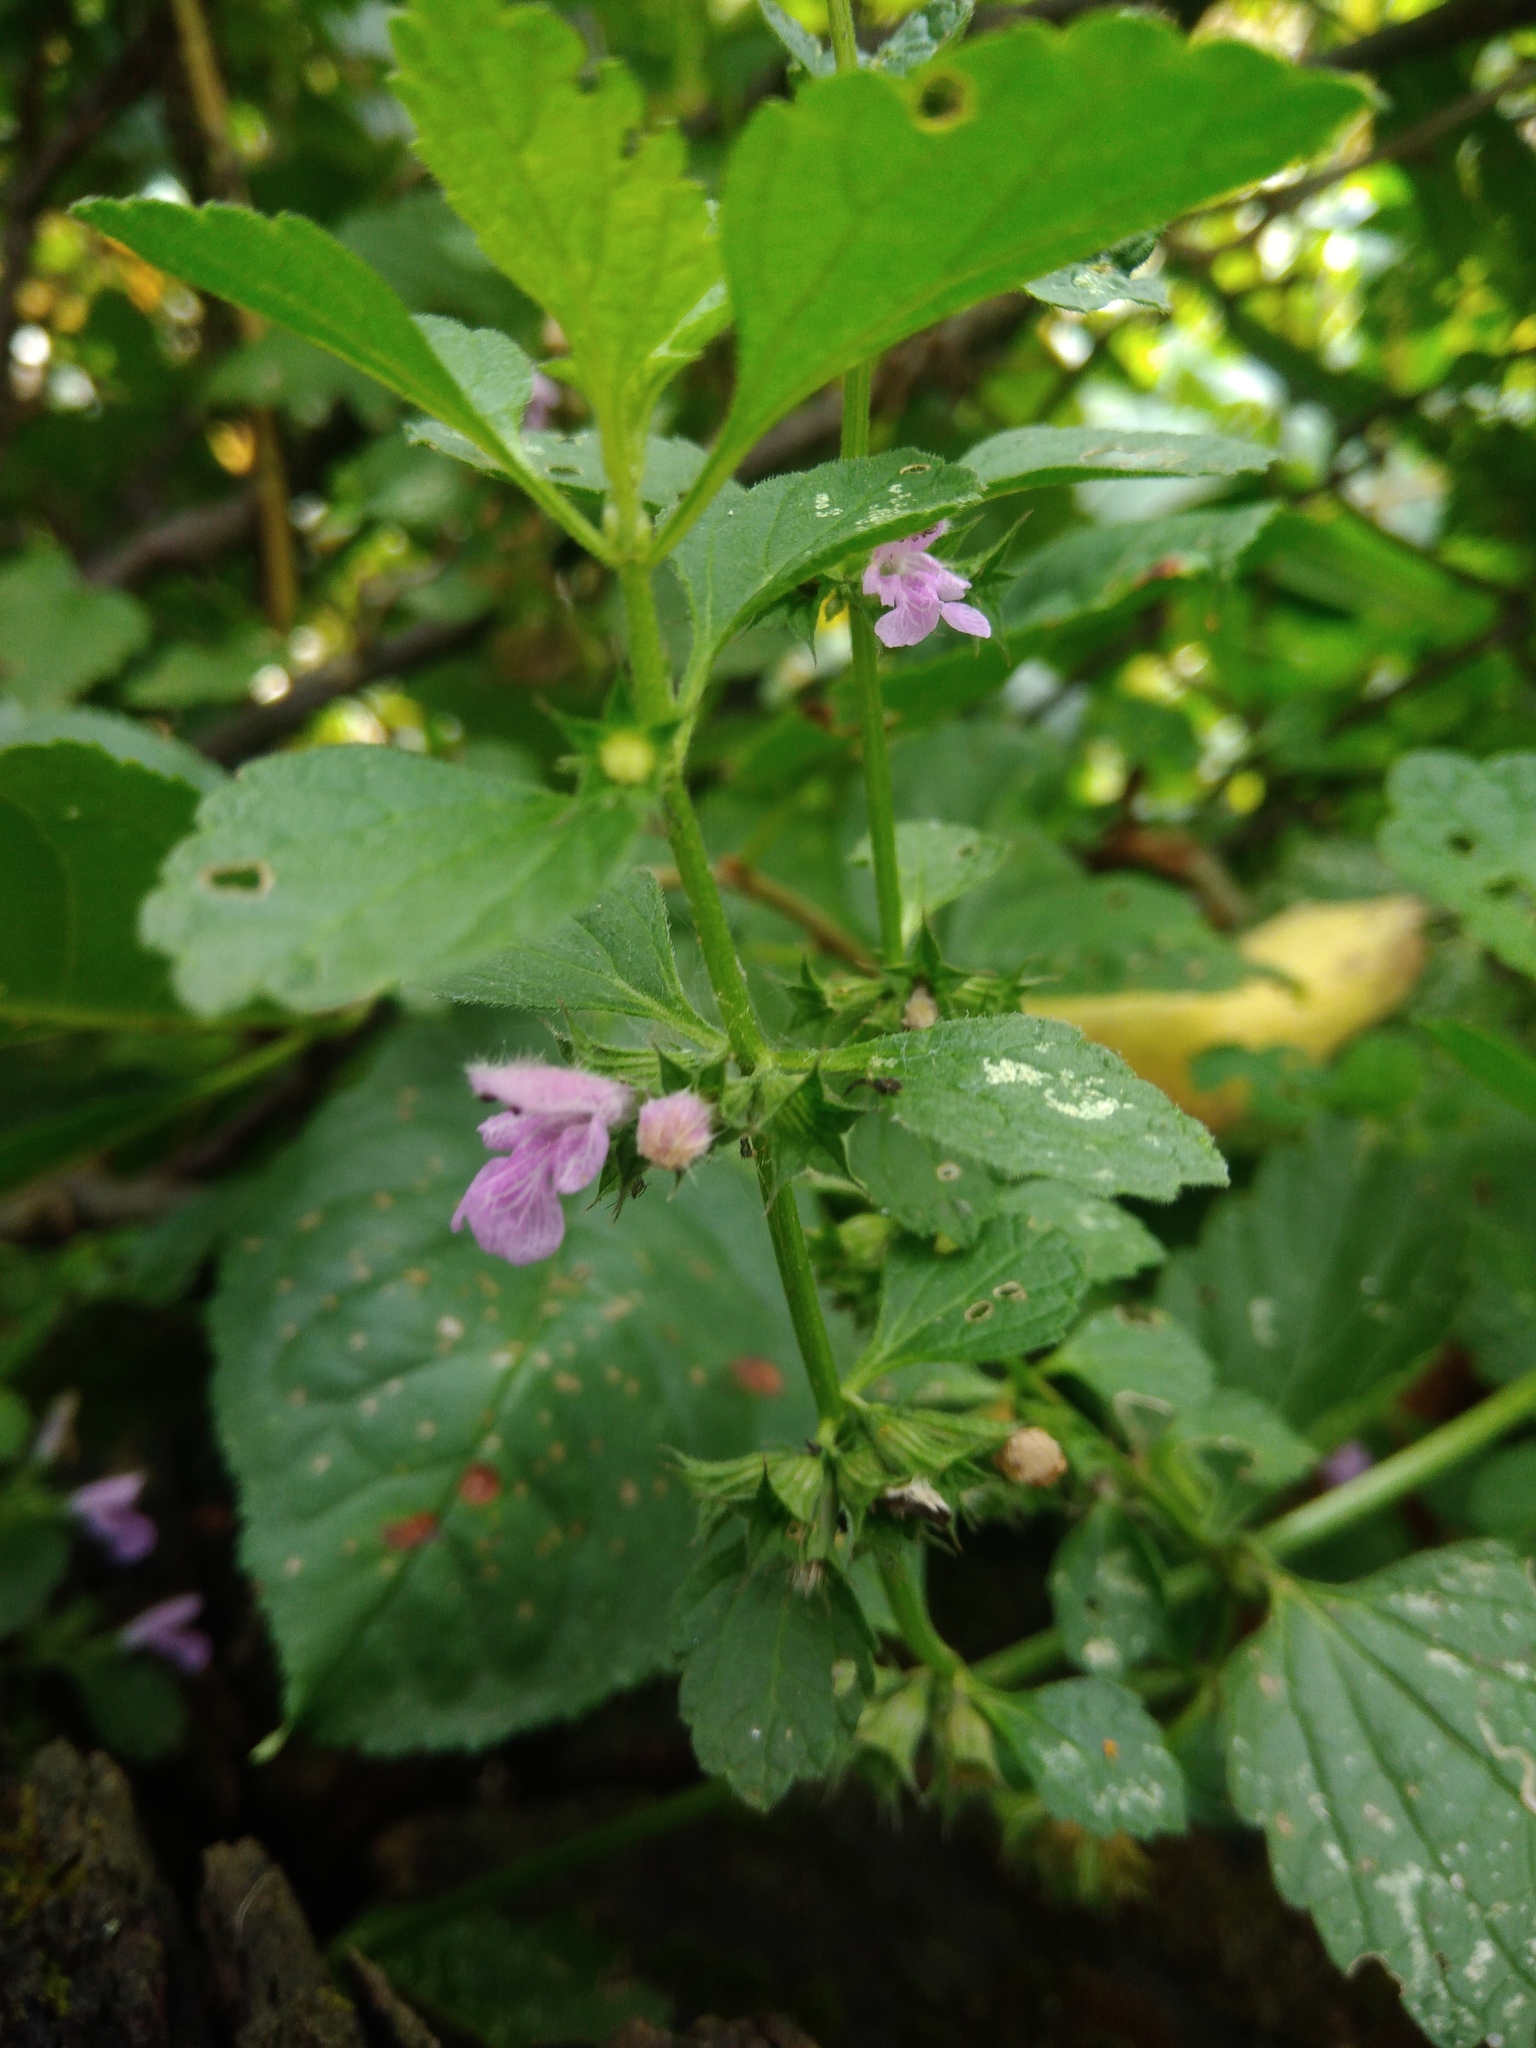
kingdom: Plantae
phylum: Tracheophyta
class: Magnoliopsida
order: Lamiales
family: Lamiaceae
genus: Ballota
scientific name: Ballota nigra
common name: Black horehound
